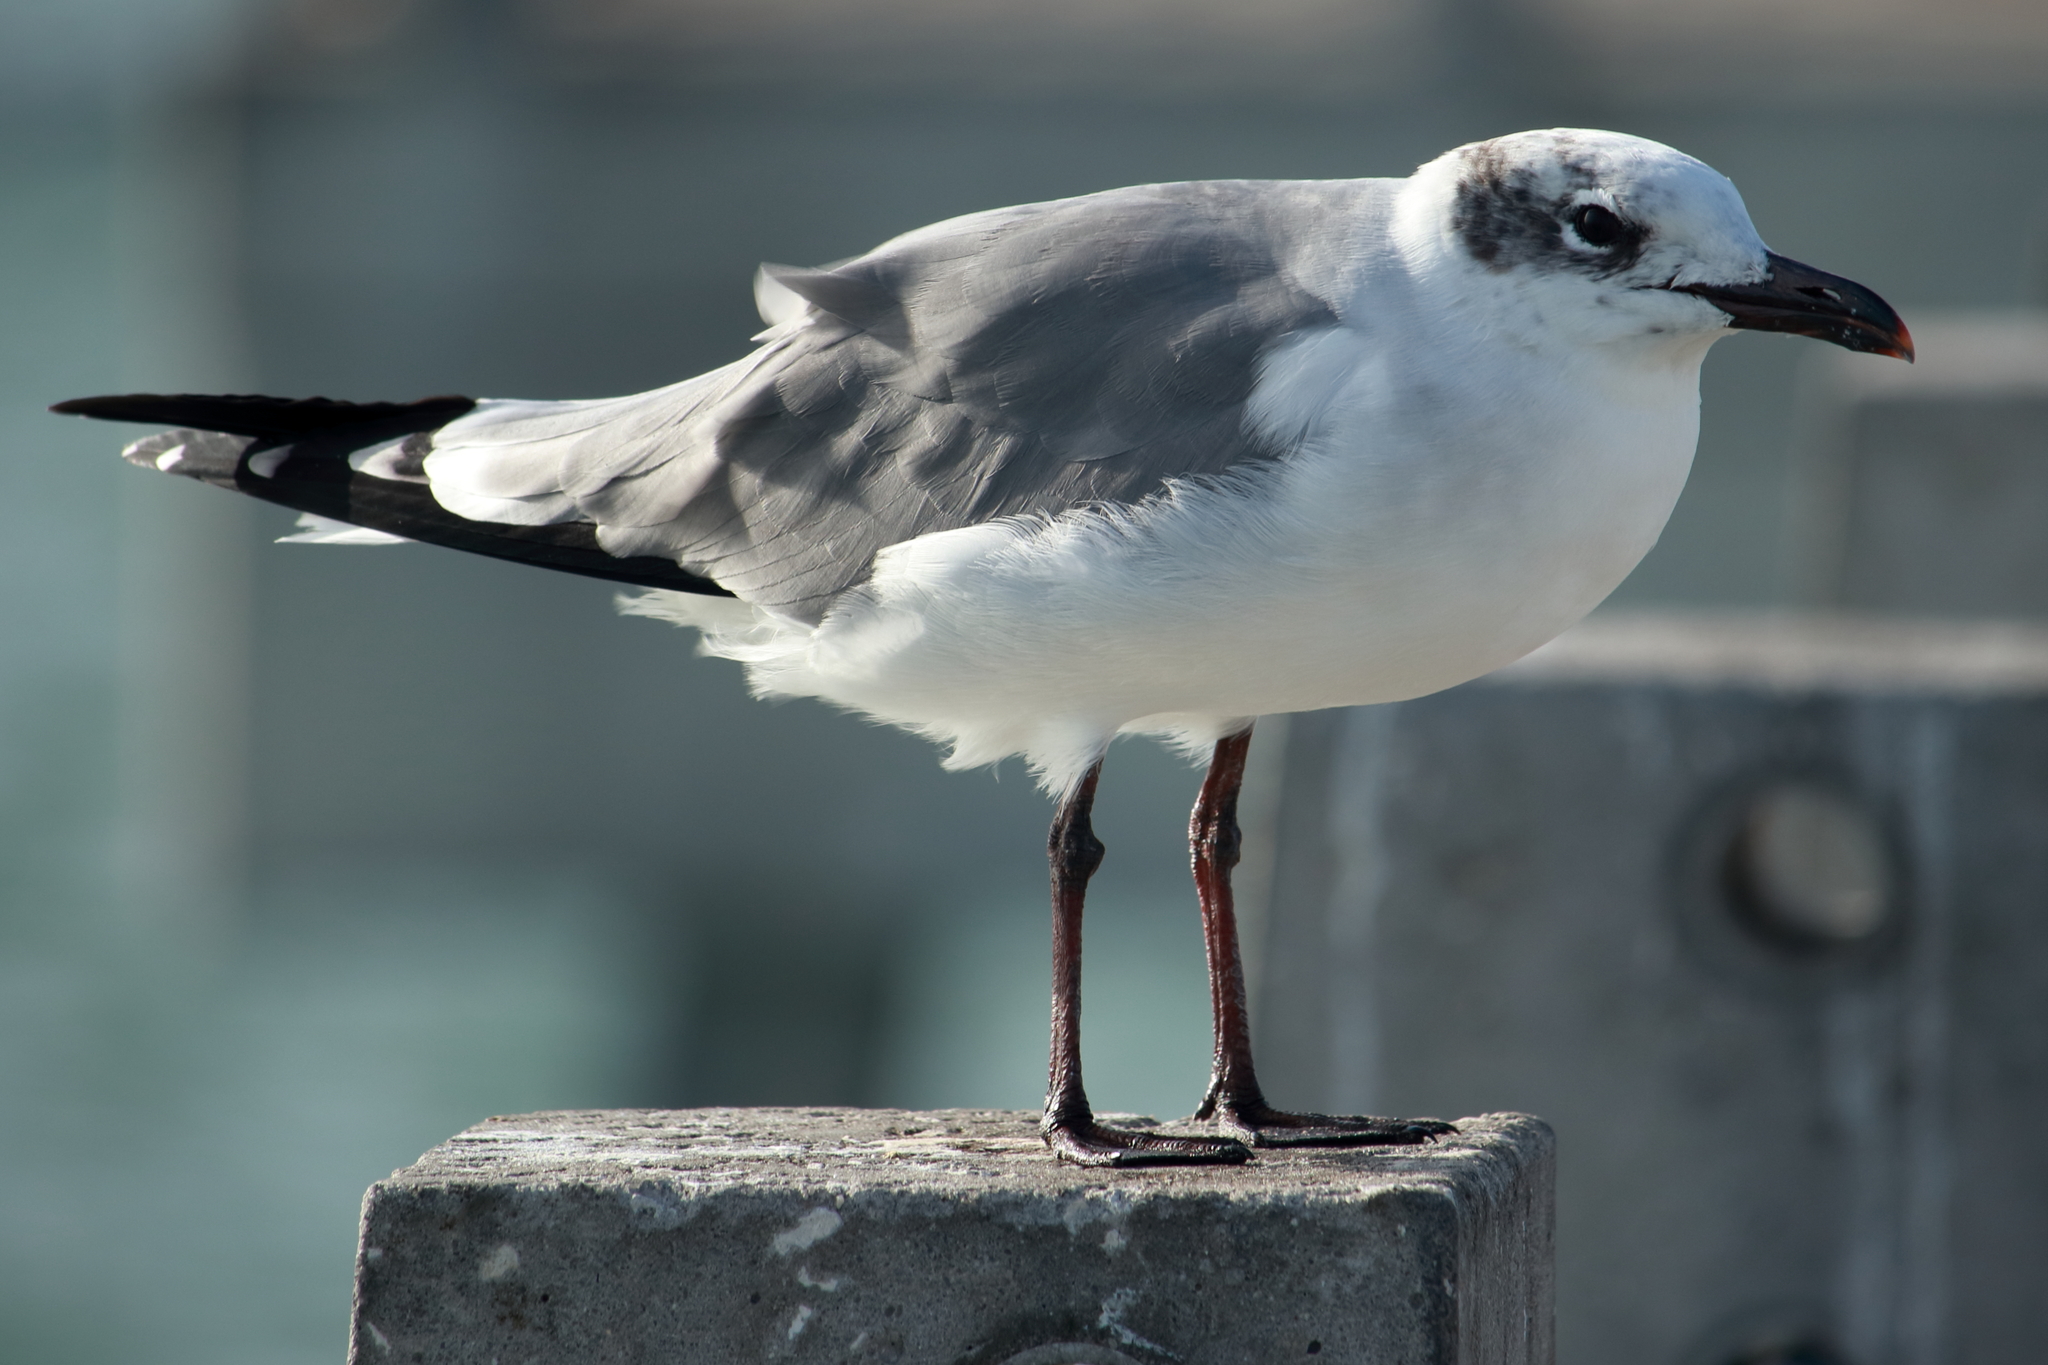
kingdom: Animalia
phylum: Chordata
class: Aves
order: Charadriiformes
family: Laridae
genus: Leucophaeus
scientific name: Leucophaeus atricilla
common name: Laughing gull
